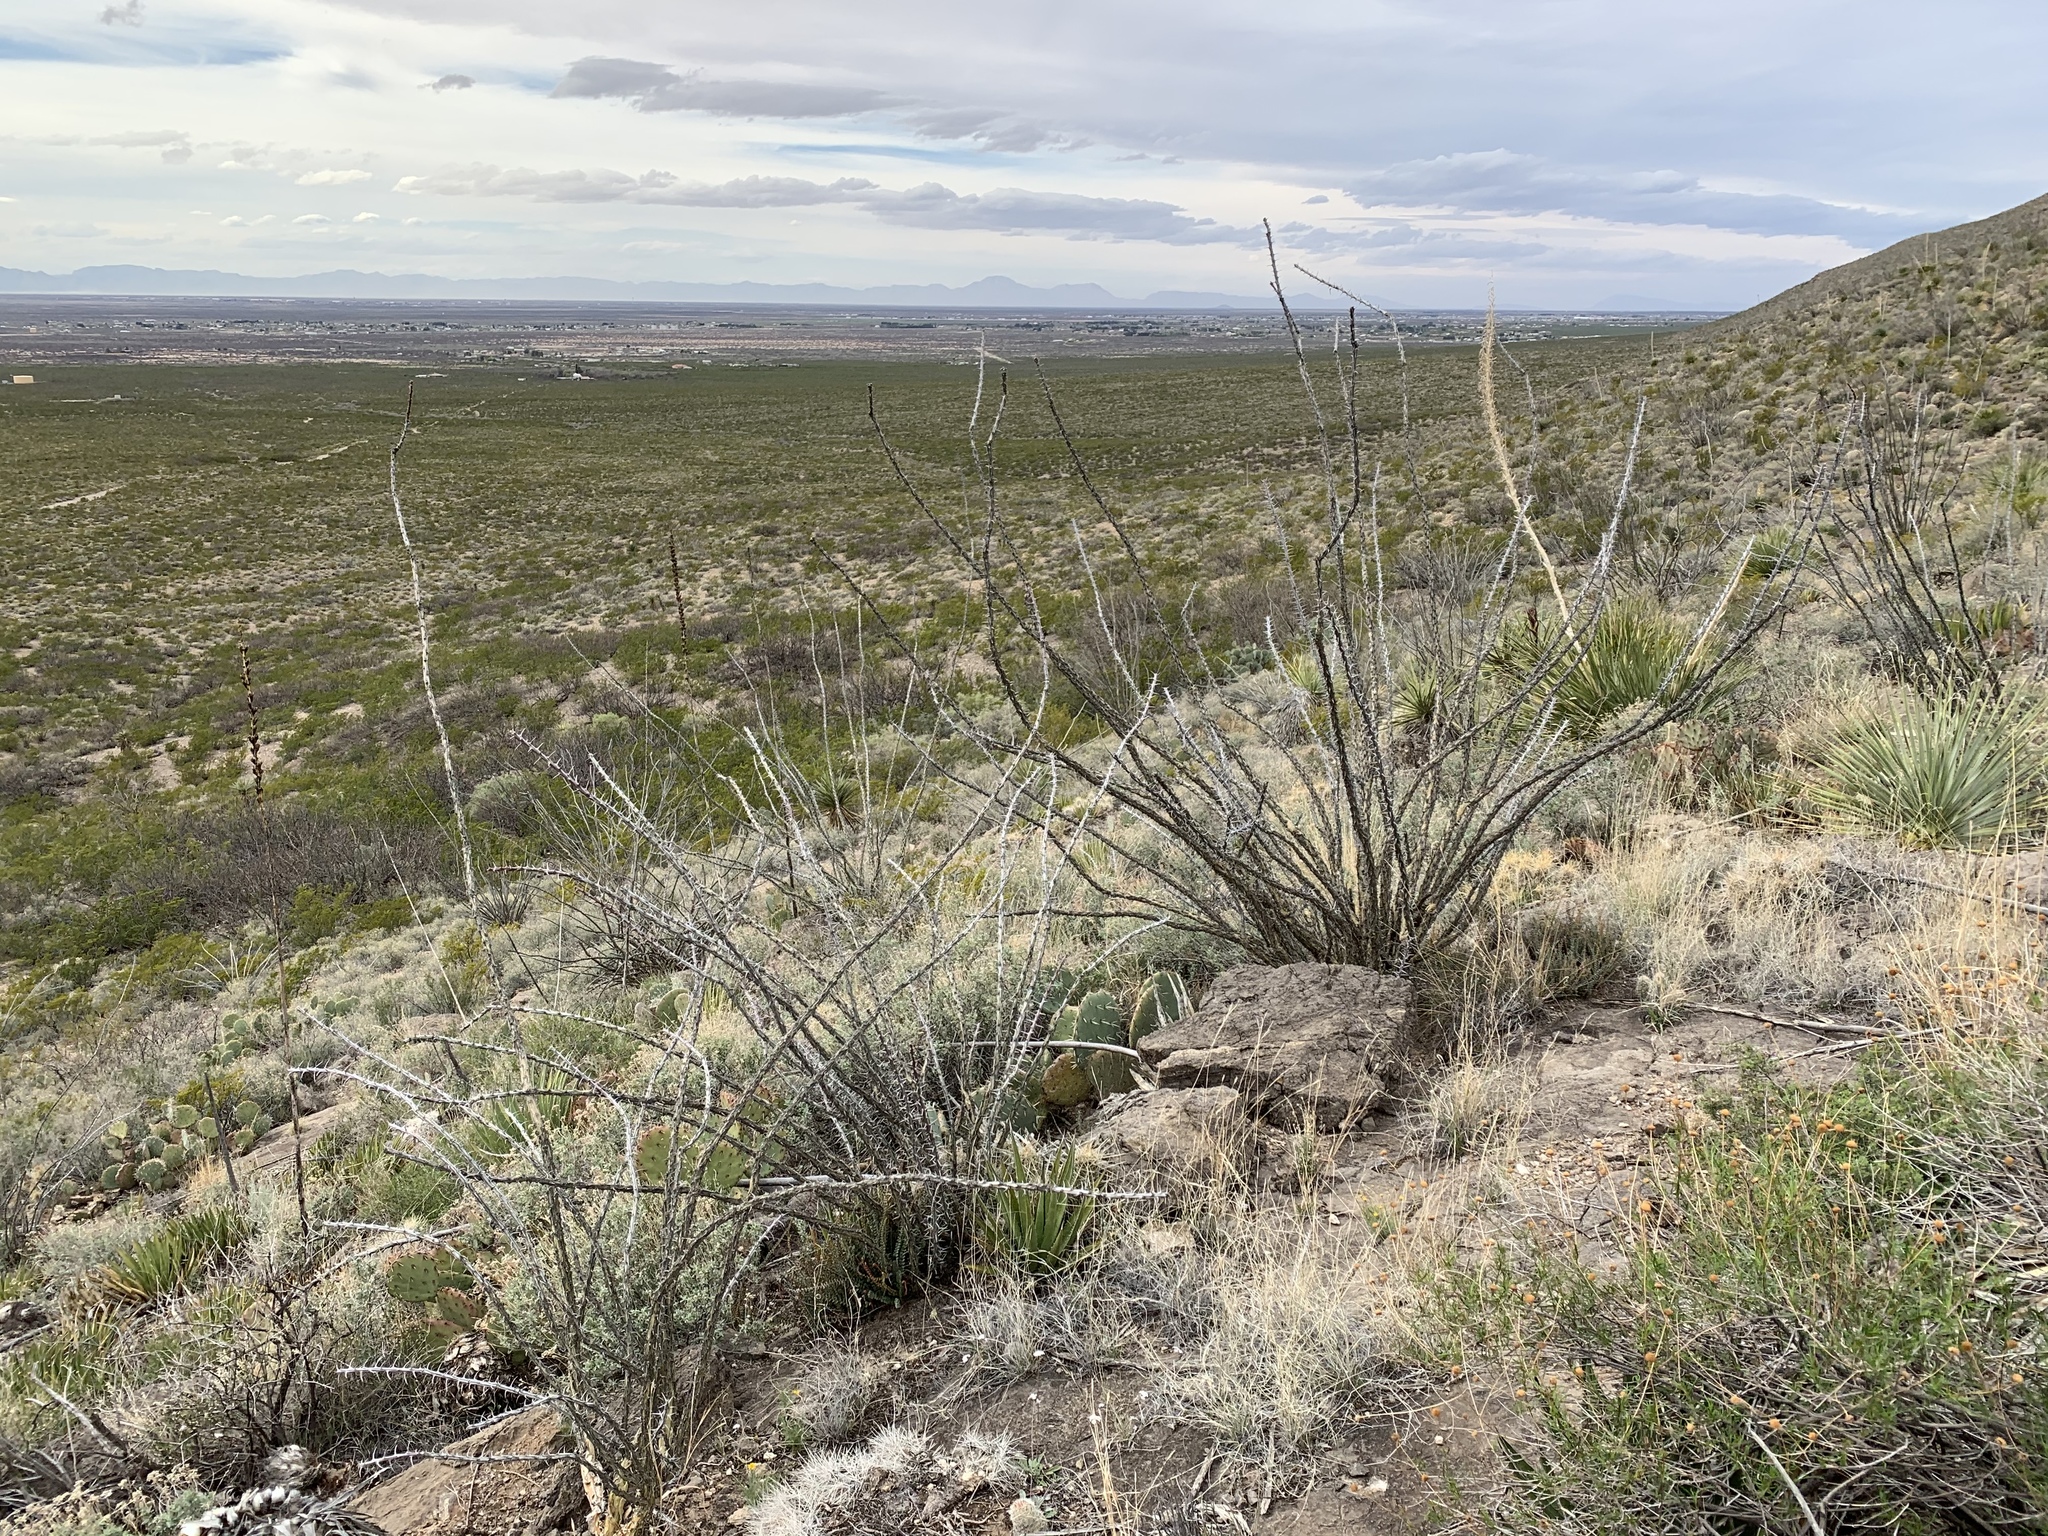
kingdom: Plantae
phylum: Tracheophyta
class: Magnoliopsida
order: Ericales
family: Fouquieriaceae
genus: Fouquieria
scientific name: Fouquieria splendens
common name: Vine-cactus
